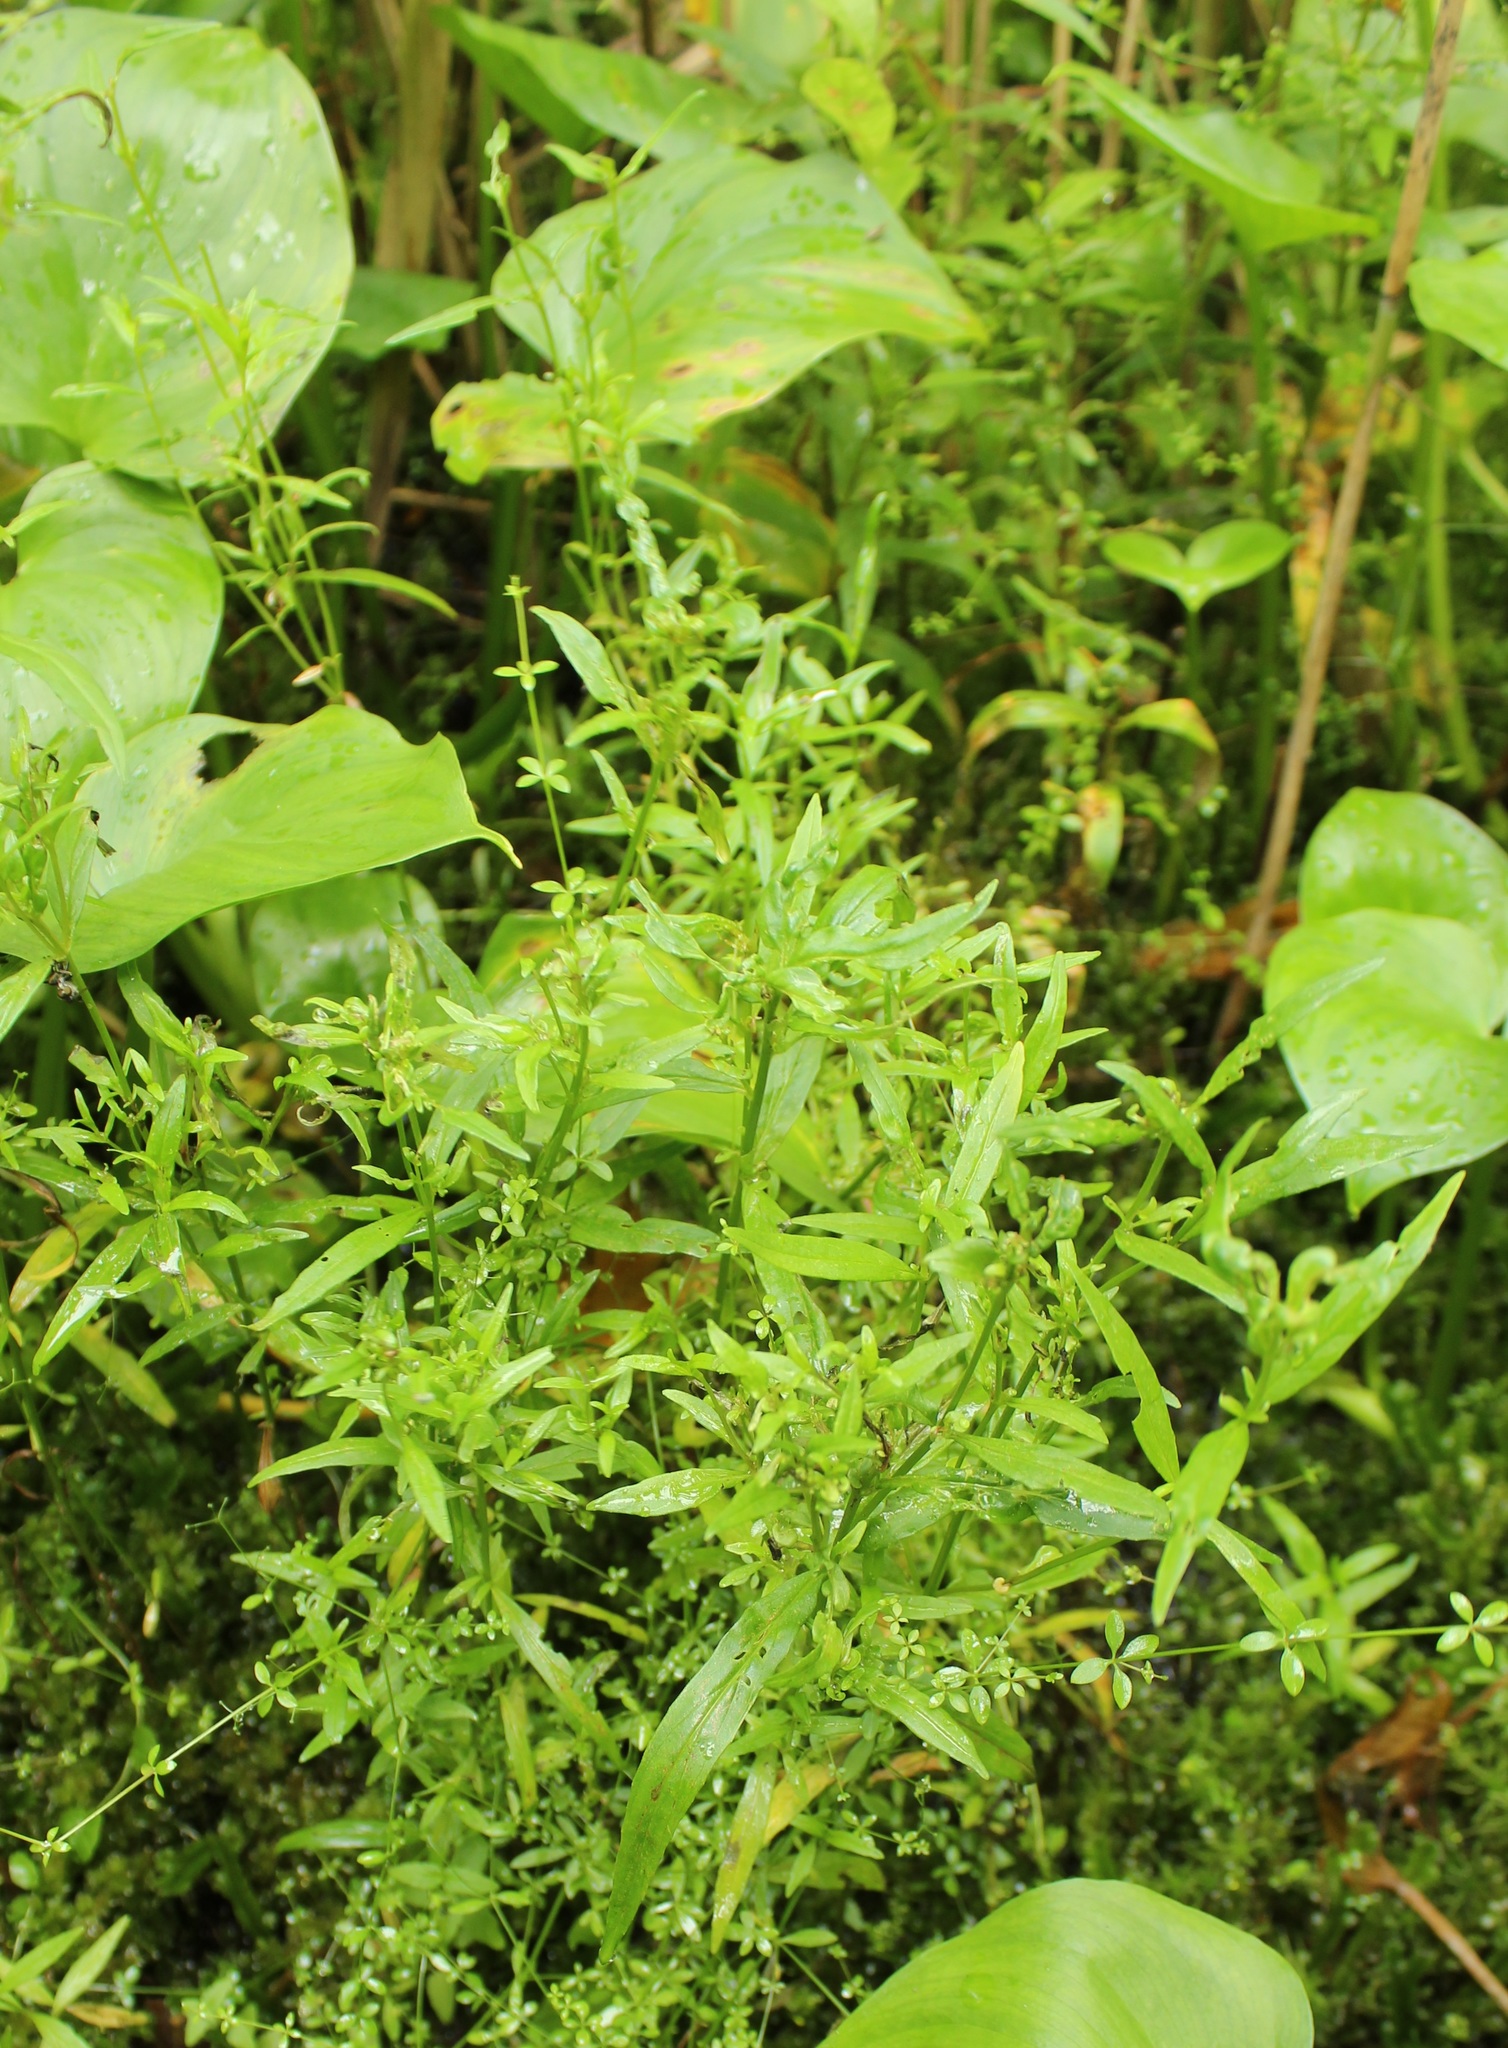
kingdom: Plantae
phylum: Tracheophyta
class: Magnoliopsida
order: Myrtales
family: Onagraceae
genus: Epilobium
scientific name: Epilobium palustre
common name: Marsh willowherb
